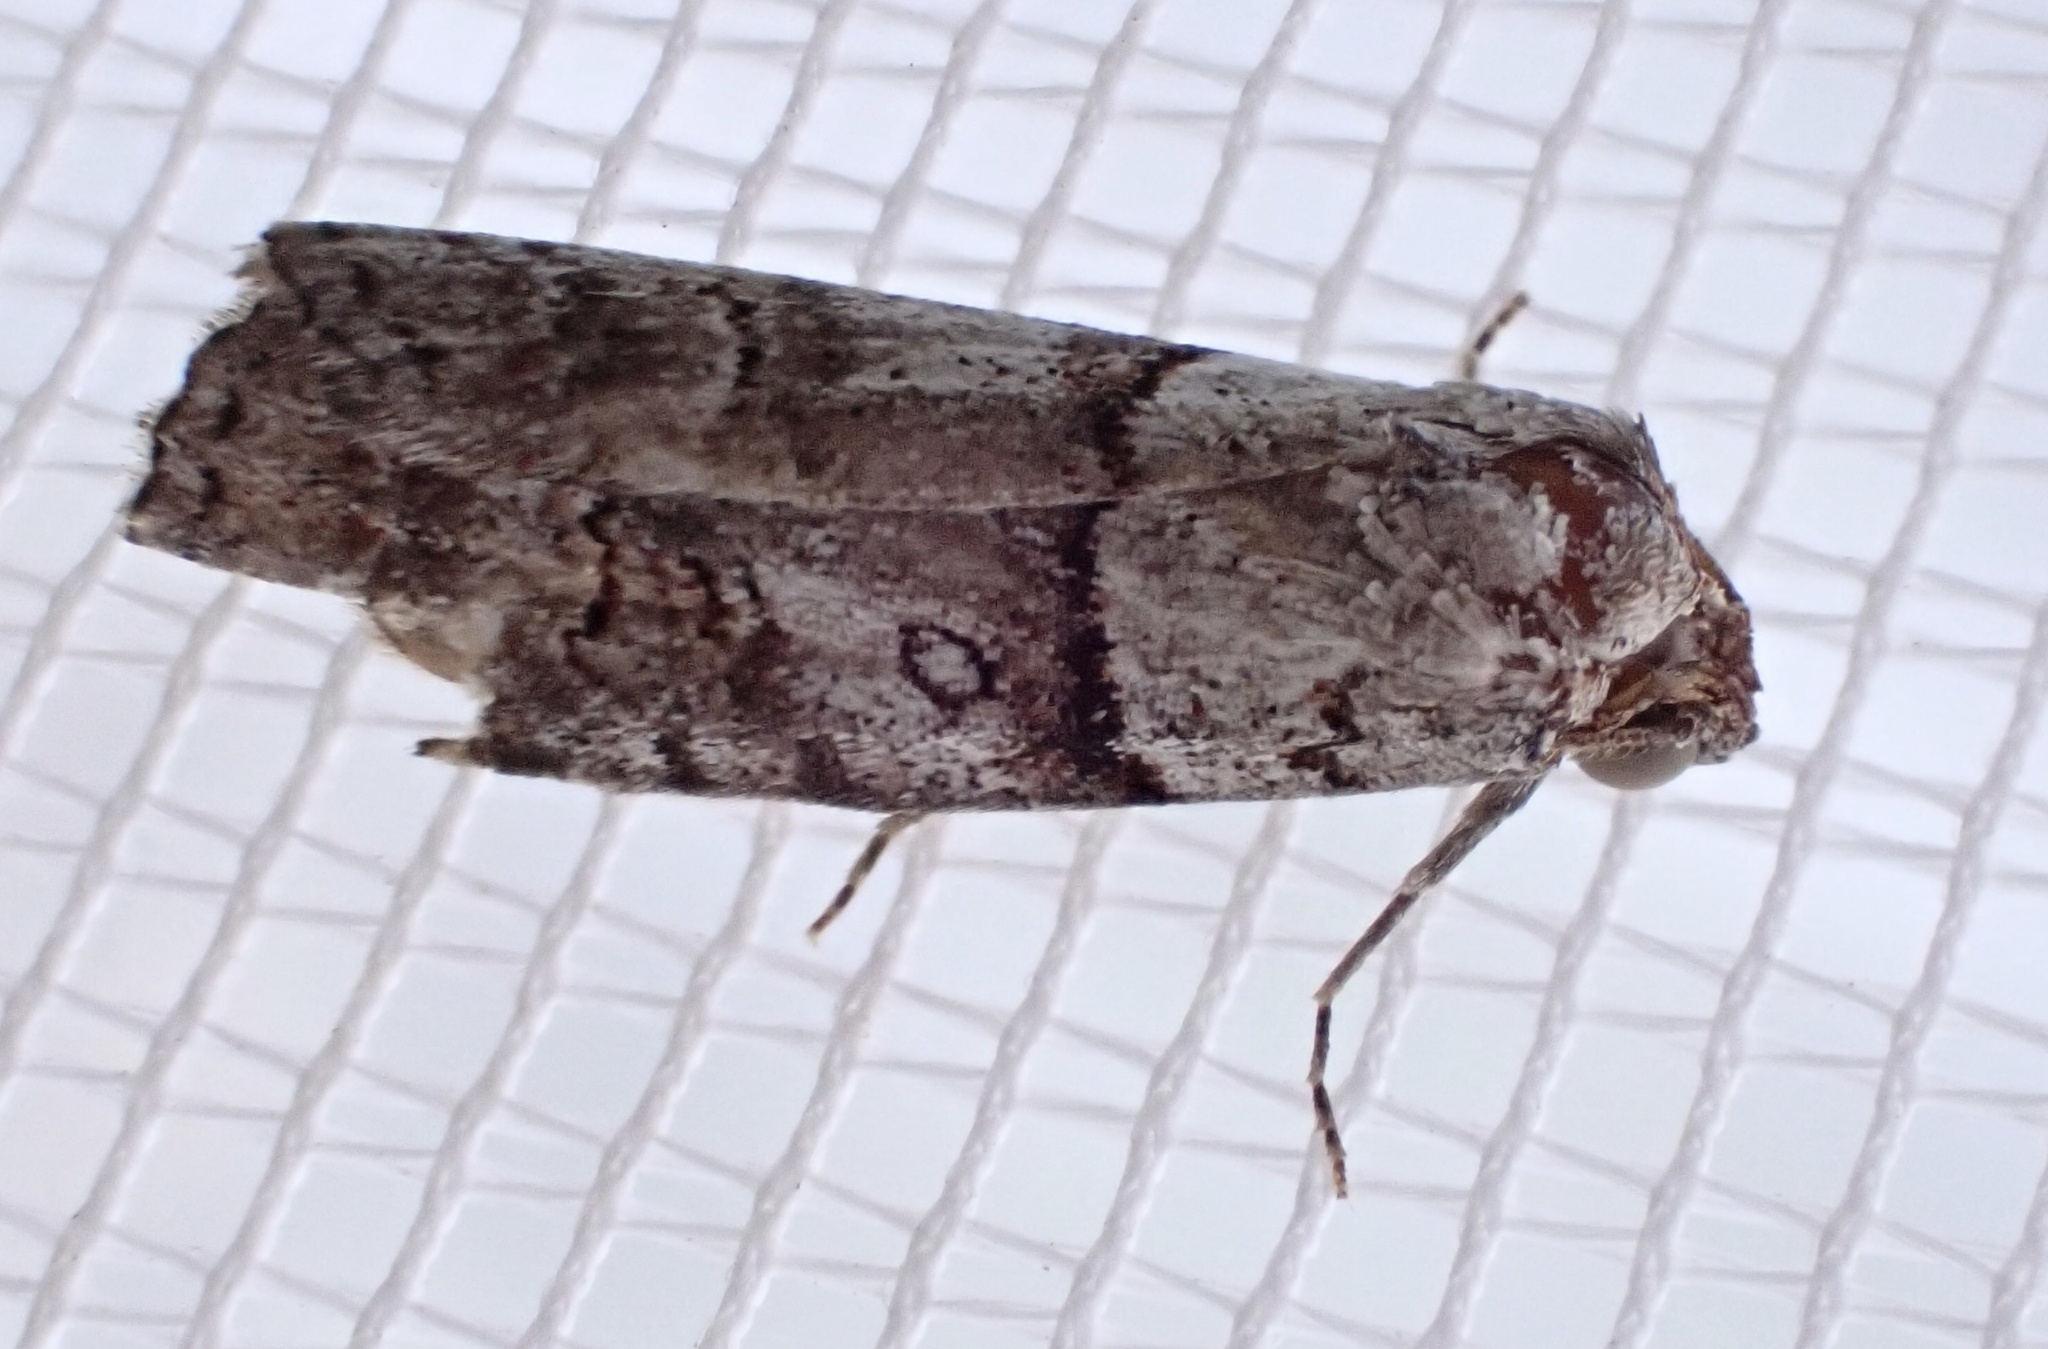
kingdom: Animalia
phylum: Arthropoda
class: Insecta
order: Lepidoptera
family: Nolidae
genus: Calathusa
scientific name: Calathusa hypotherma
